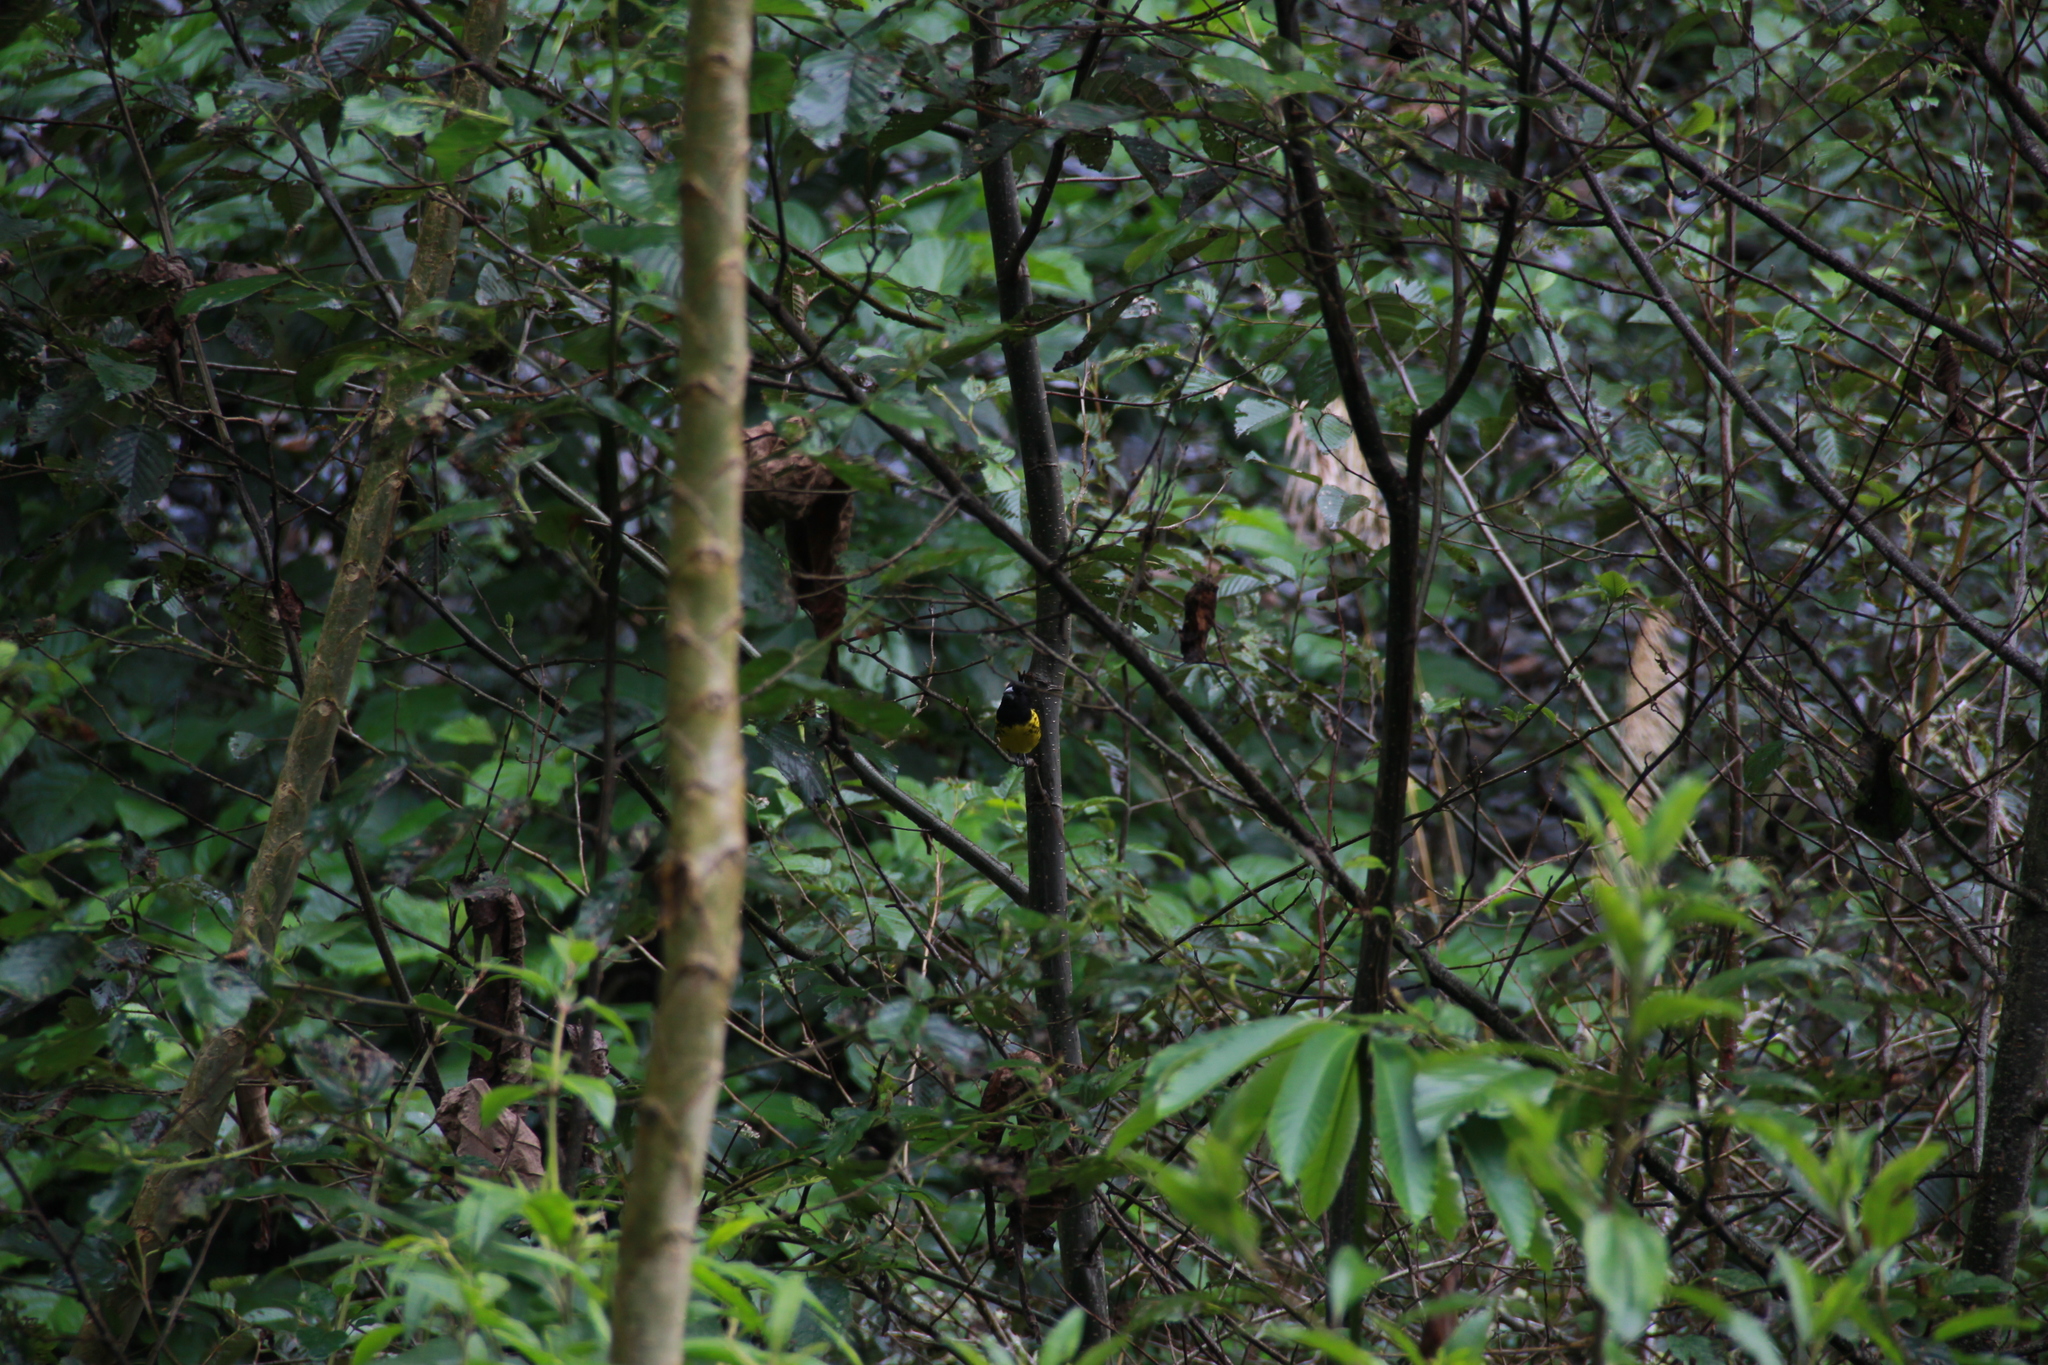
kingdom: Animalia
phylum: Chordata
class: Aves
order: Passeriformes
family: Cardinalidae
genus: Pheucticus
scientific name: Pheucticus aureoventris
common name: Black-backed grosbeak
